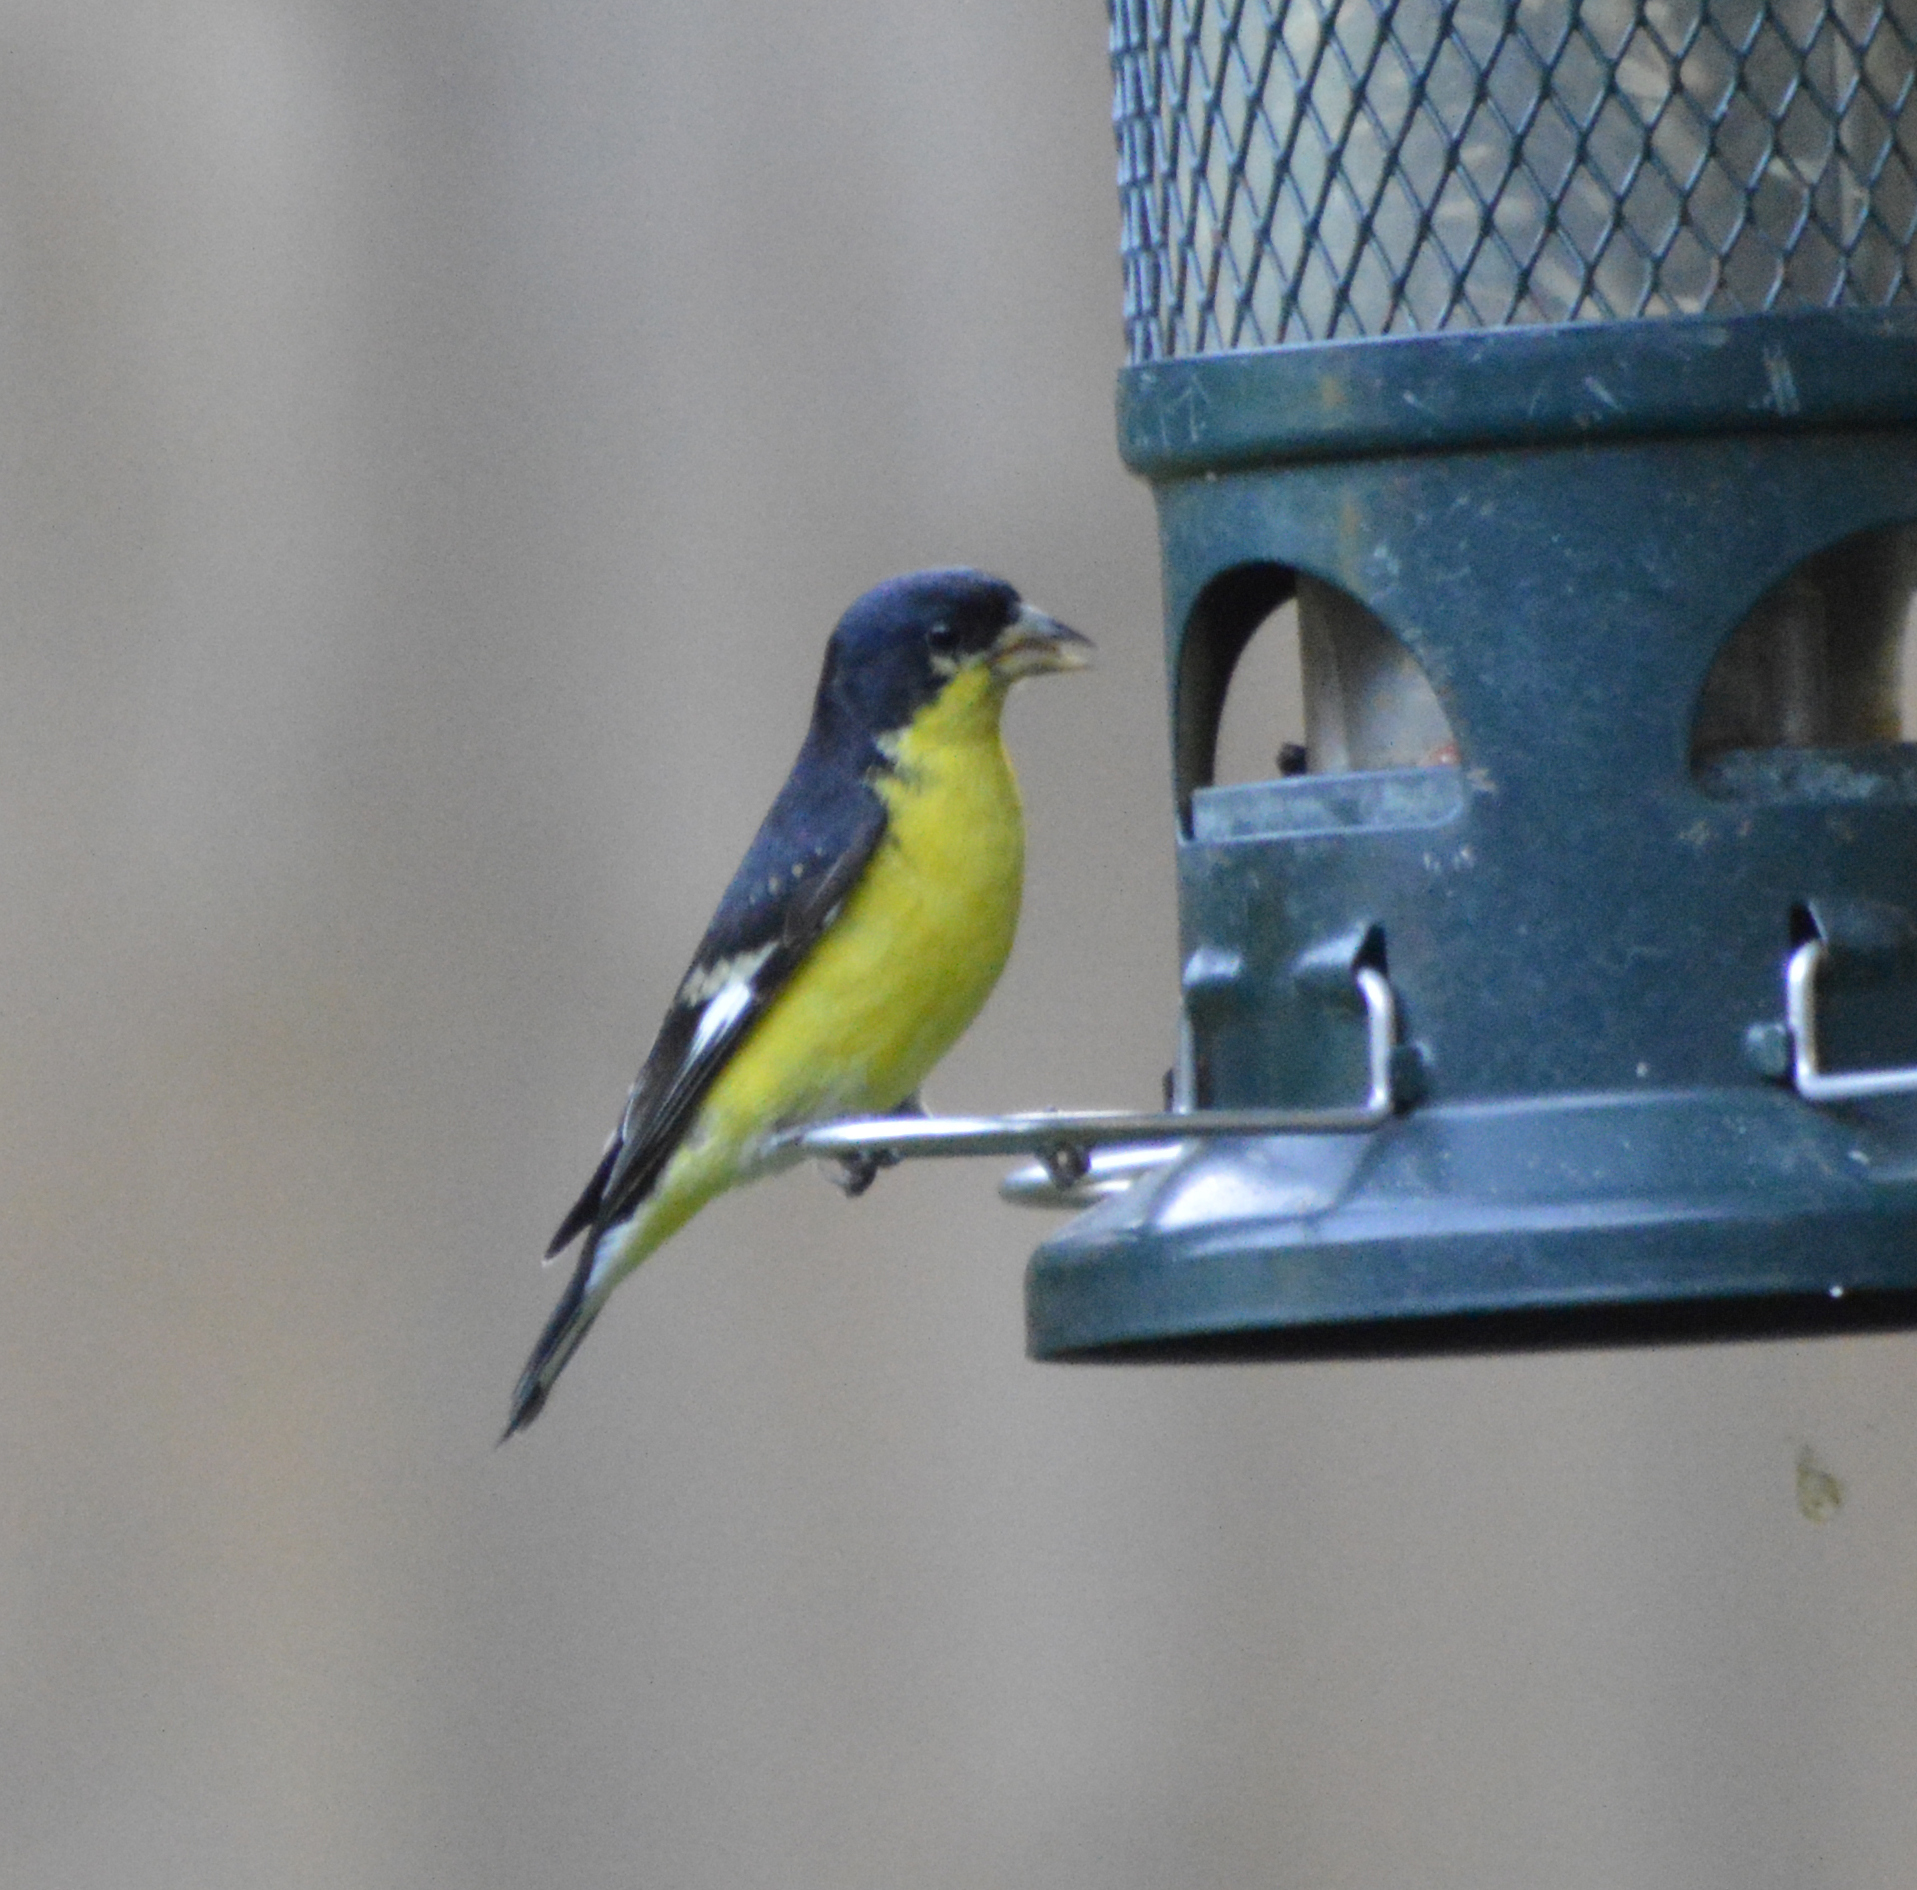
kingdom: Animalia
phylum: Chordata
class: Aves
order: Passeriformes
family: Fringillidae
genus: Spinus
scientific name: Spinus psaltria
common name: Lesser goldfinch
